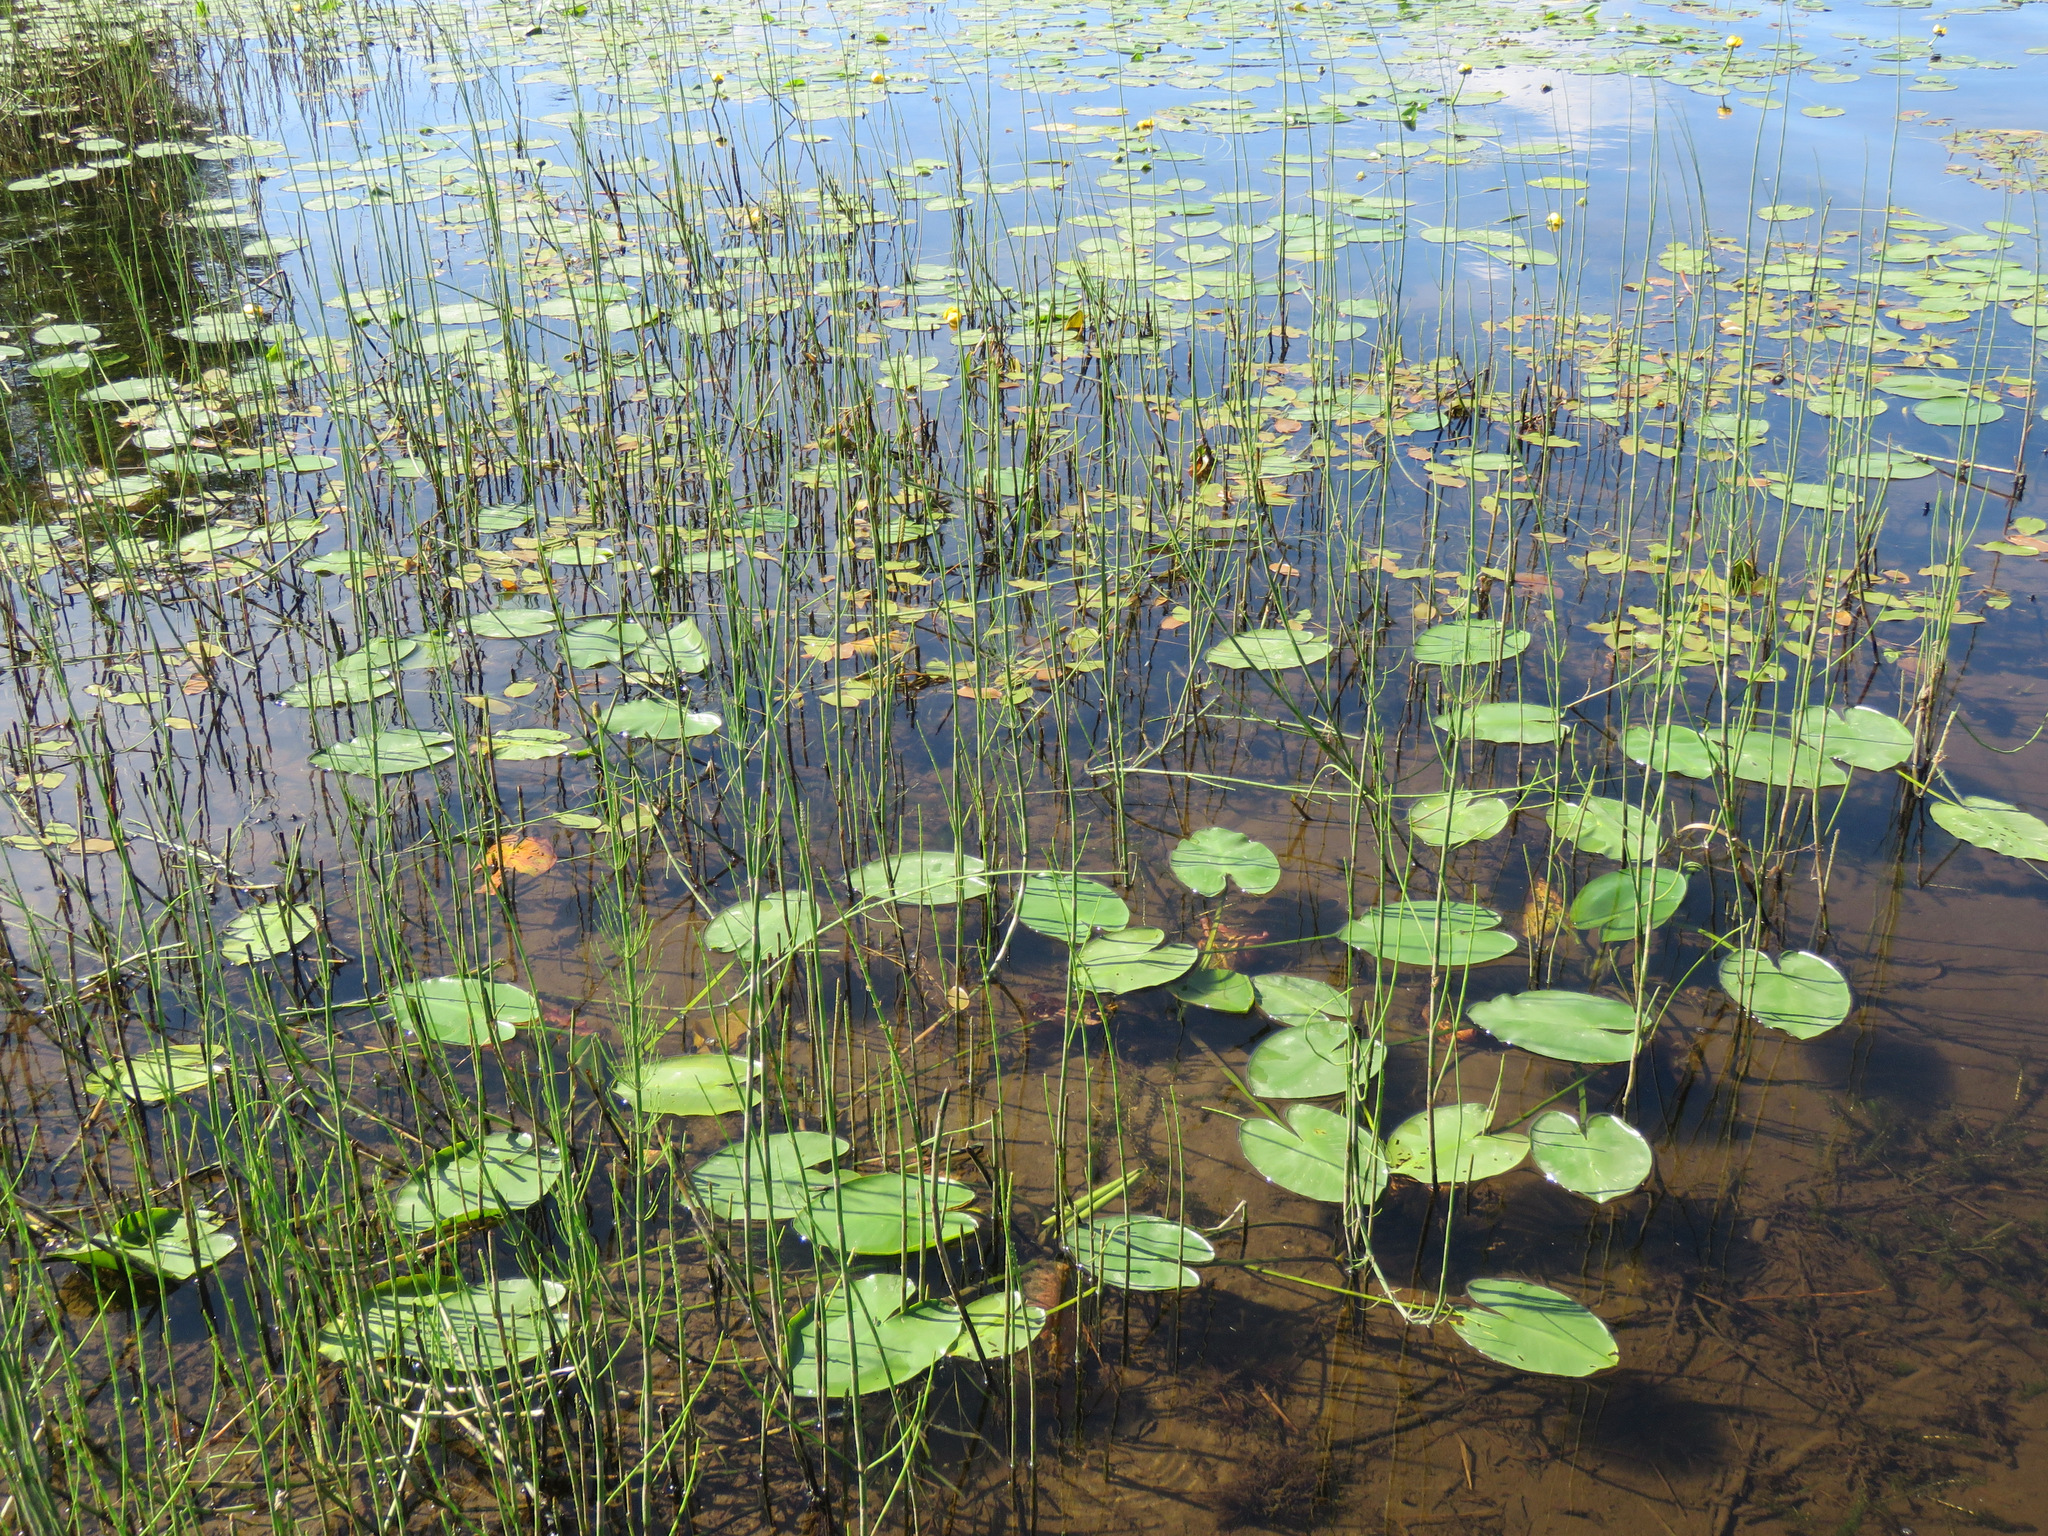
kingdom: Plantae
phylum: Tracheophyta
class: Polypodiopsida
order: Equisetales
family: Equisetaceae
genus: Equisetum
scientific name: Equisetum fluviatile
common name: Water horsetail
